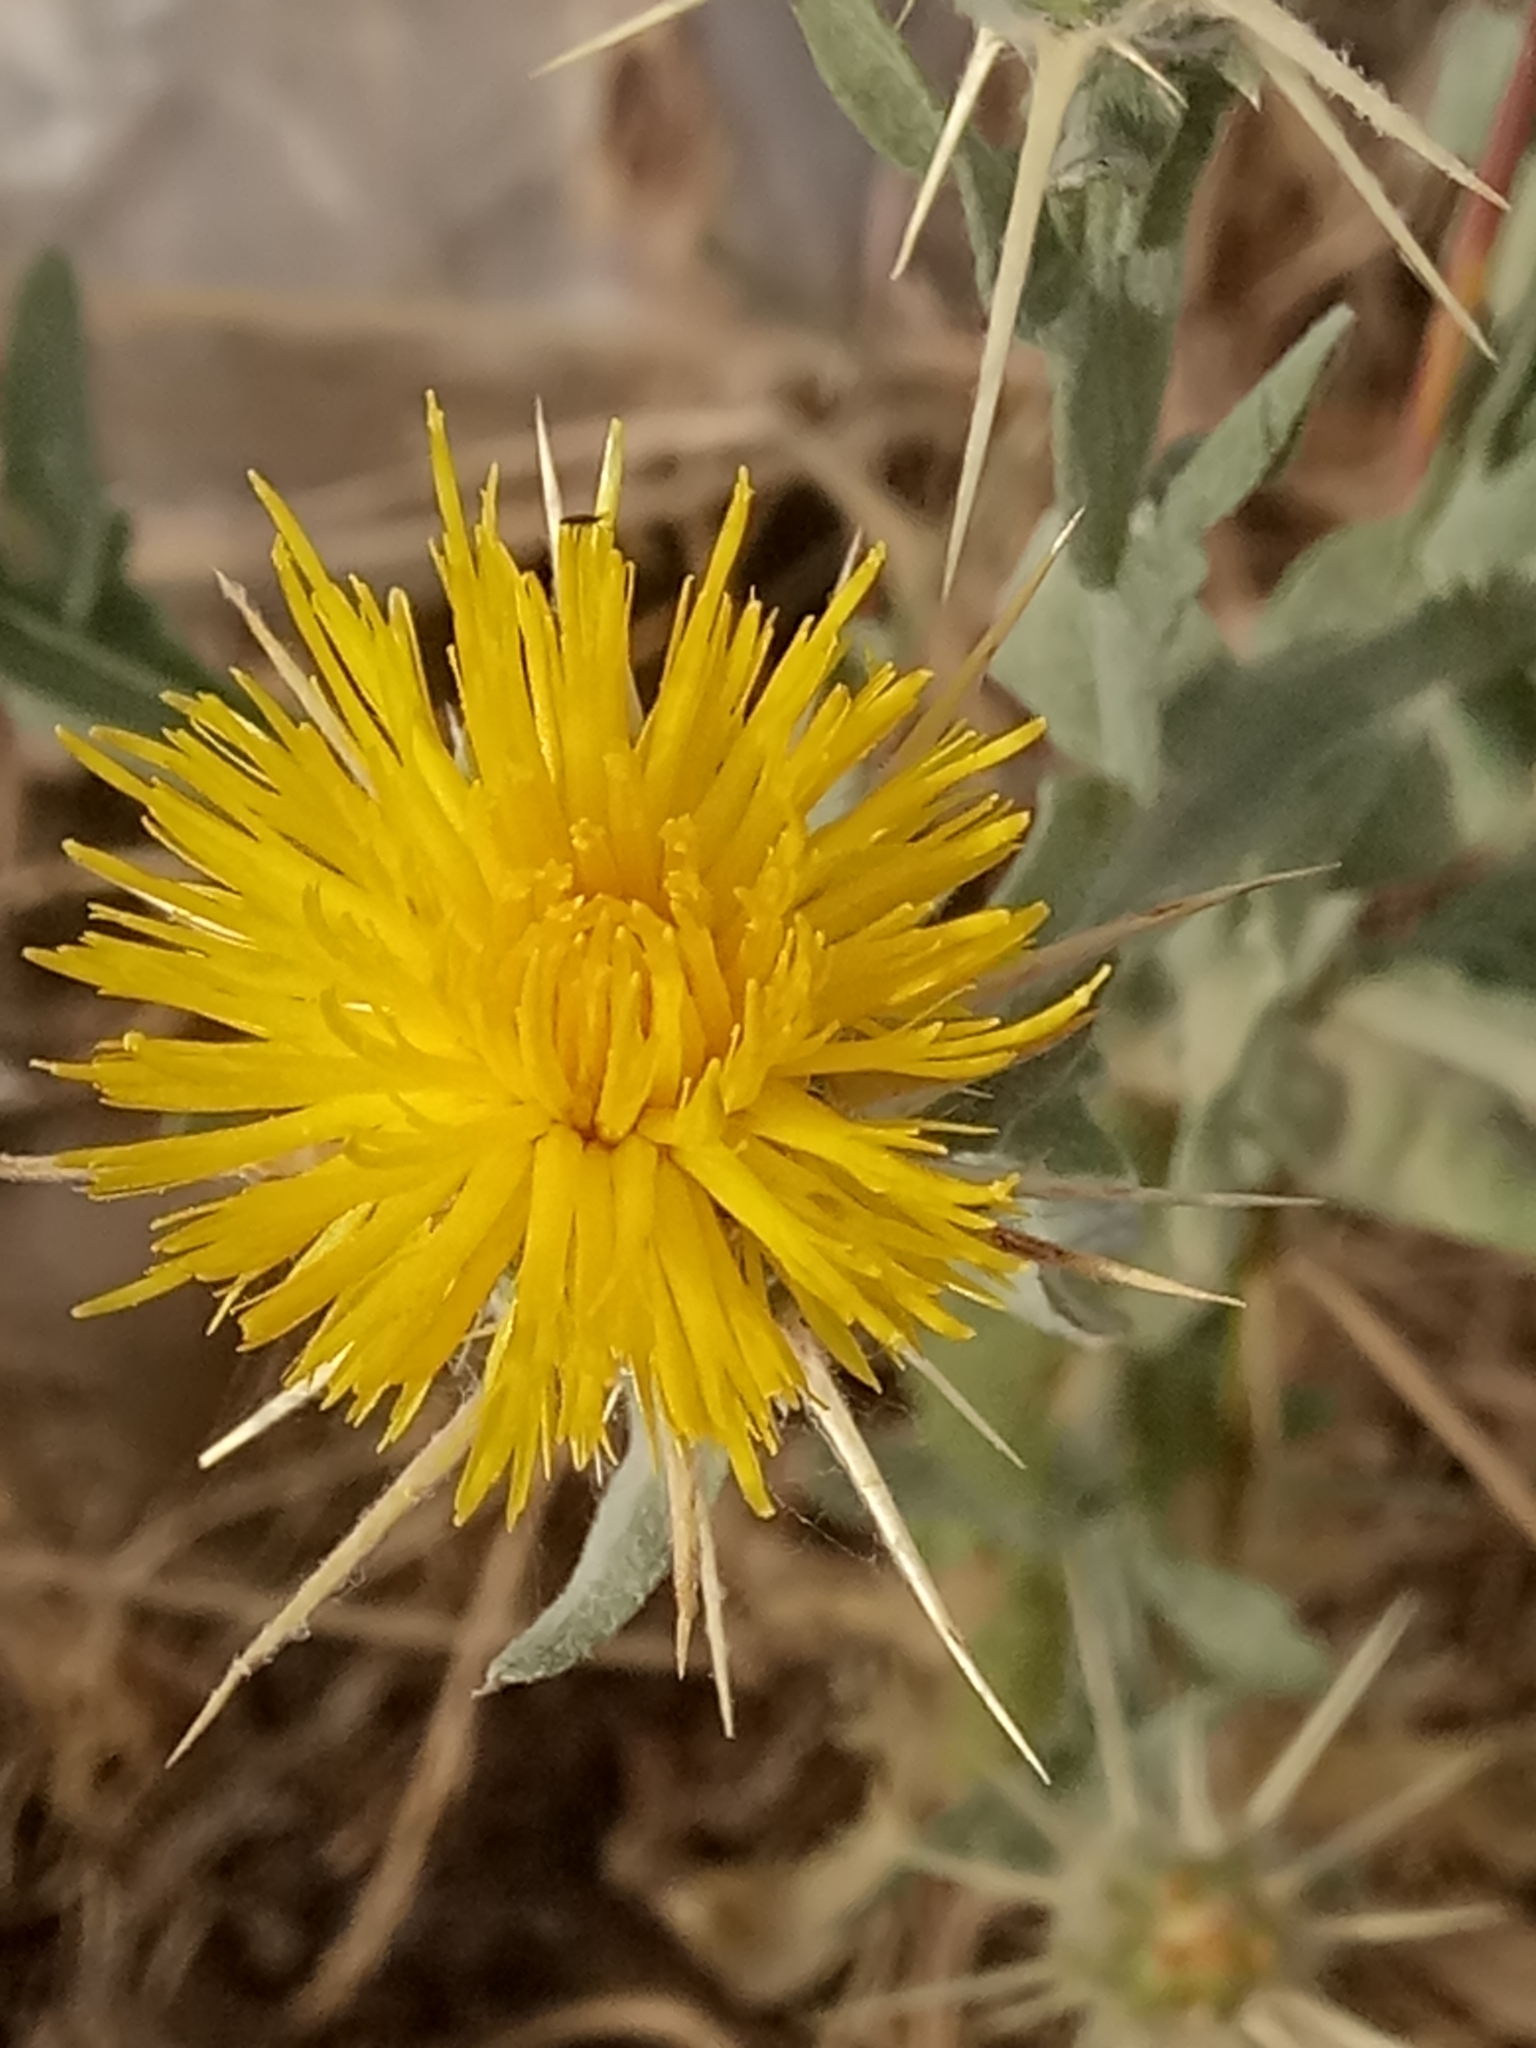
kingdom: Plantae
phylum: Tracheophyta
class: Magnoliopsida
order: Asterales
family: Asteraceae
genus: Centaurea
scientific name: Centaurea solstitialis
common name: Yellow star-thistle
